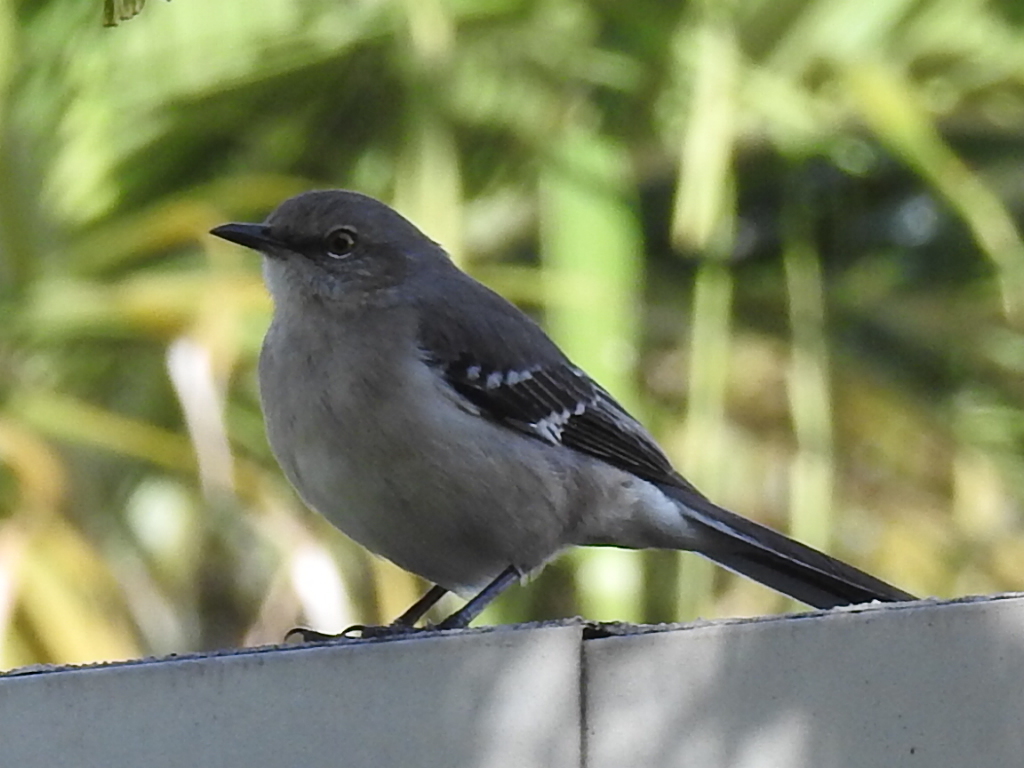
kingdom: Animalia
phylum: Chordata
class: Aves
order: Passeriformes
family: Mimidae
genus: Mimus
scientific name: Mimus polyglottos
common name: Northern mockingbird
